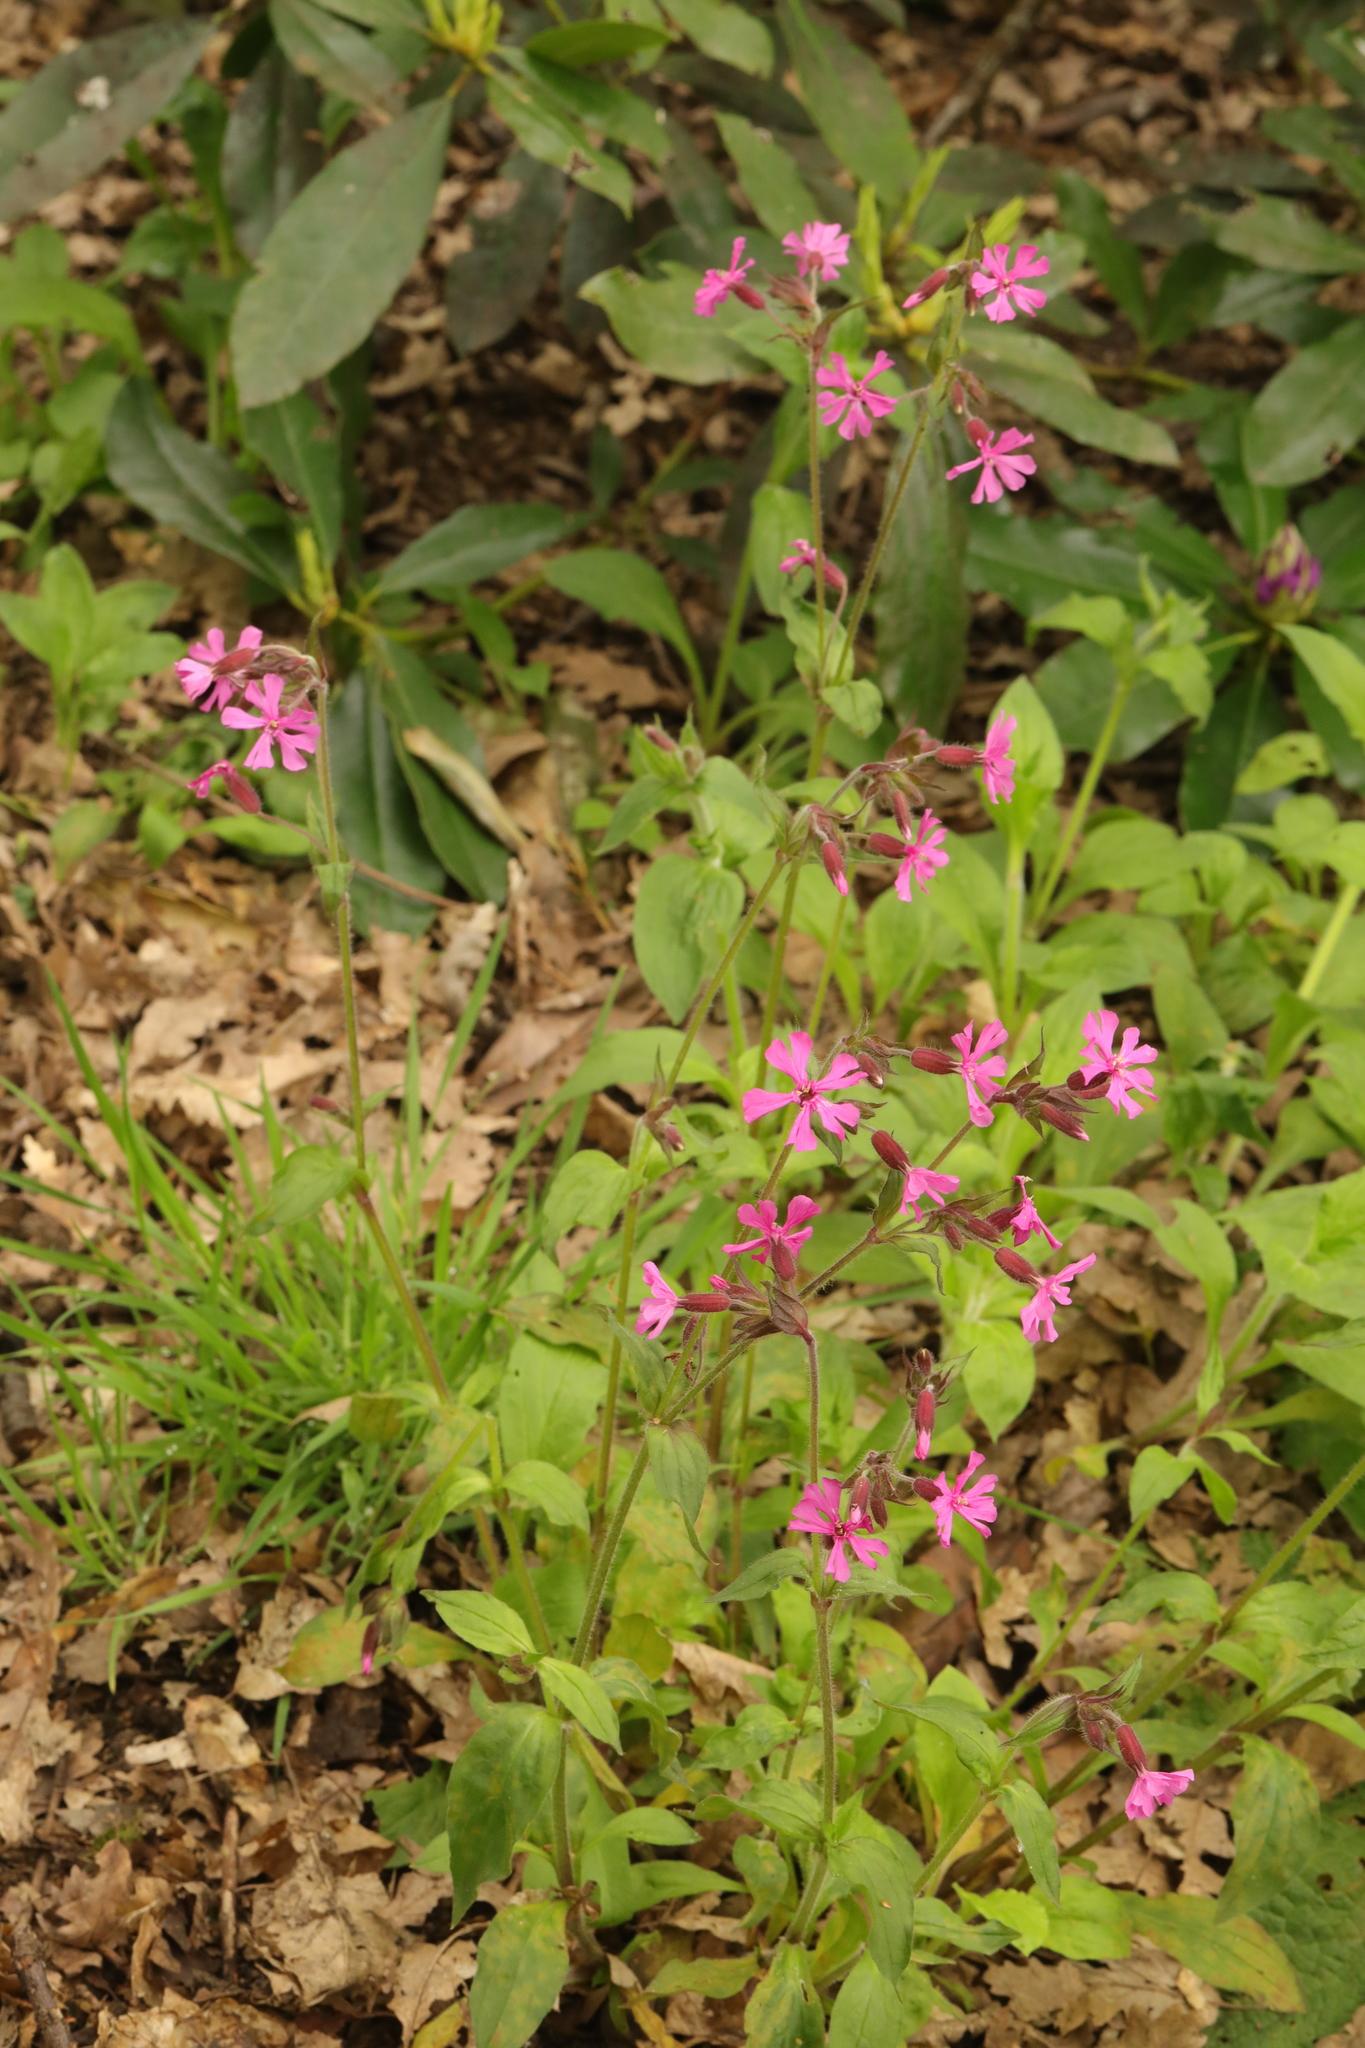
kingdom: Plantae
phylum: Tracheophyta
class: Magnoliopsida
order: Caryophyllales
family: Caryophyllaceae
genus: Silene
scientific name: Silene dioica
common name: Red campion
